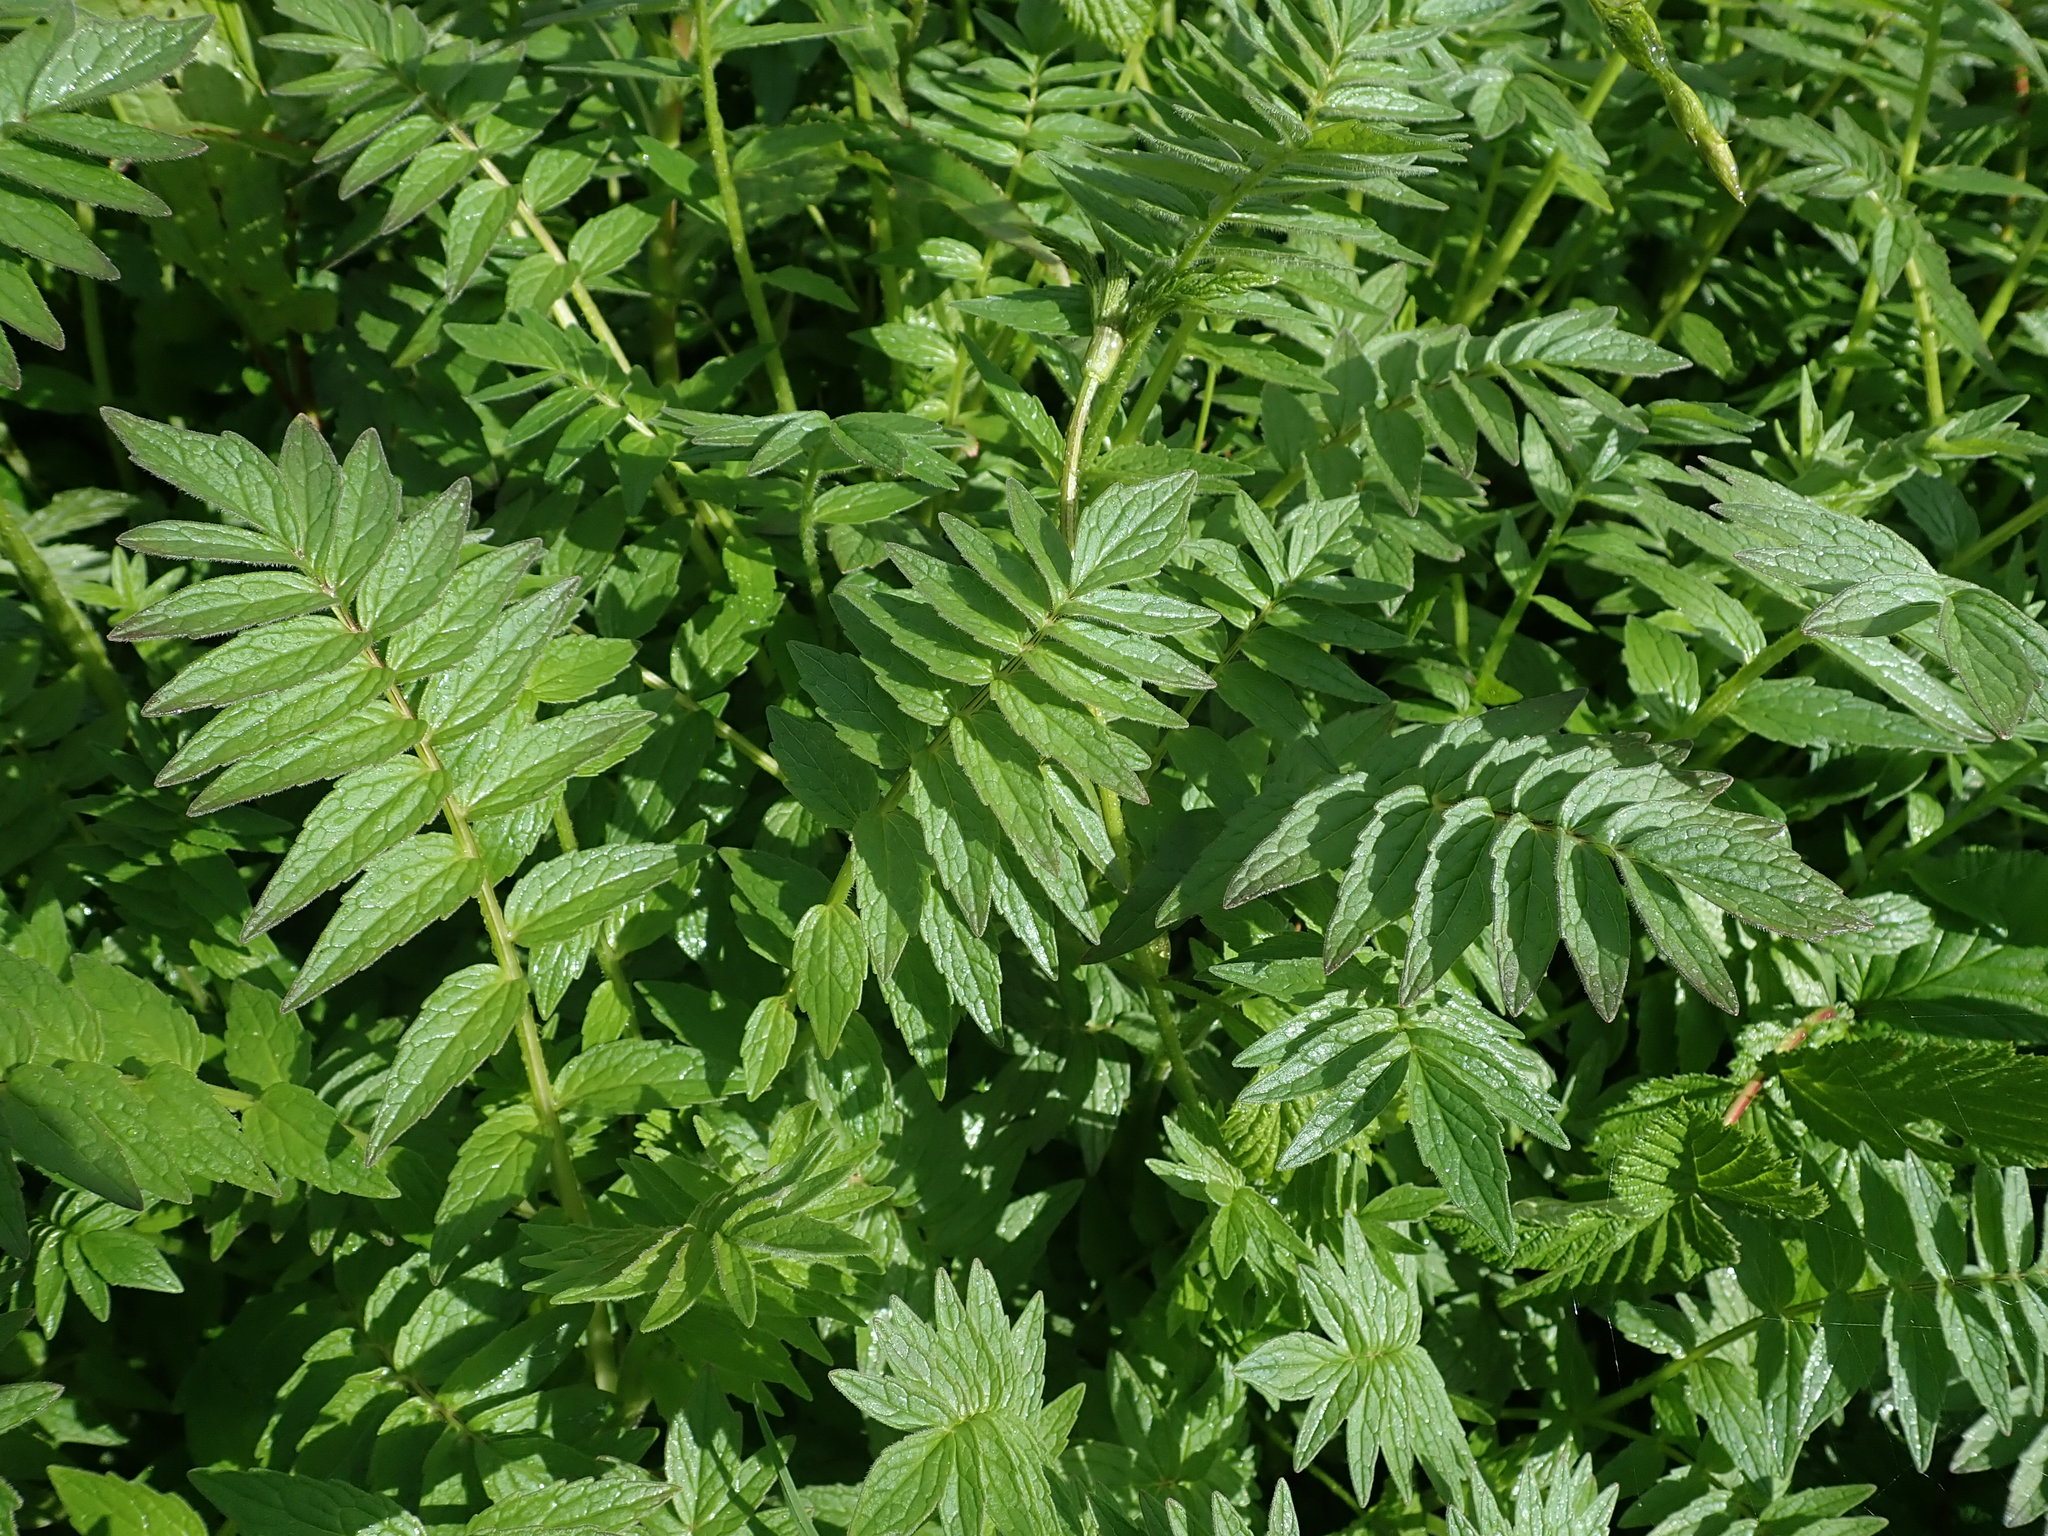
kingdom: Plantae
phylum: Tracheophyta
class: Magnoliopsida
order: Dipsacales
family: Caprifoliaceae
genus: Valeriana
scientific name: Valeriana officinalis
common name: Common valerian
